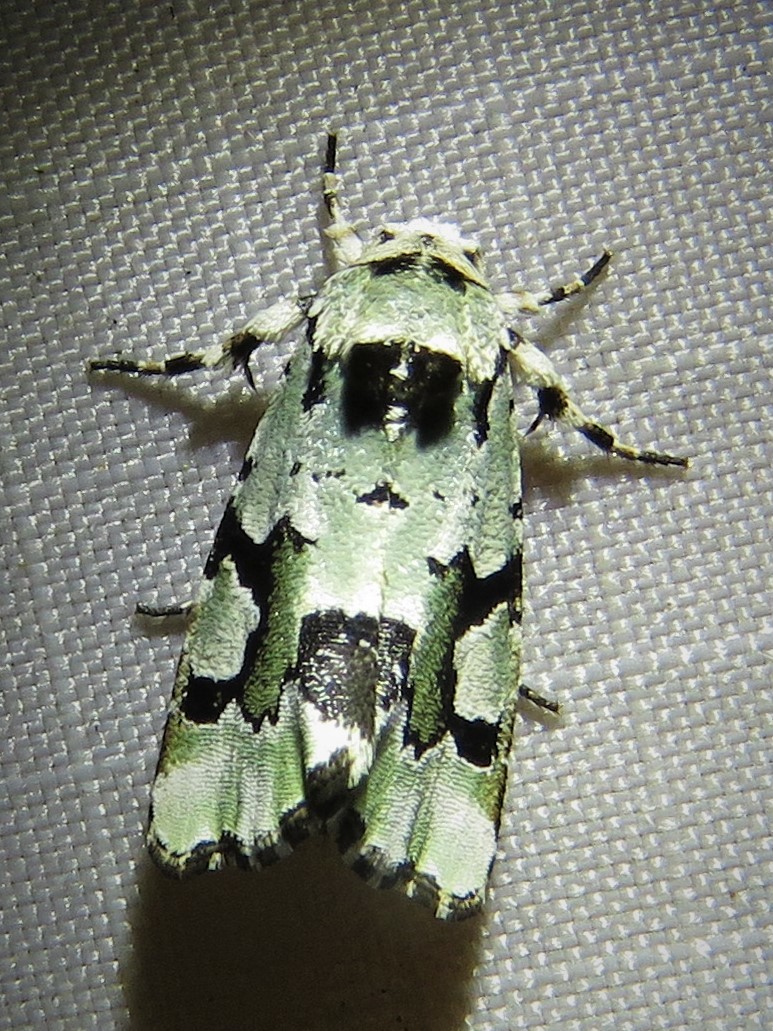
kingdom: Animalia
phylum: Arthropoda
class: Insecta
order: Lepidoptera
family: Noctuidae
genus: Emarginea
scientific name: Emarginea percara
